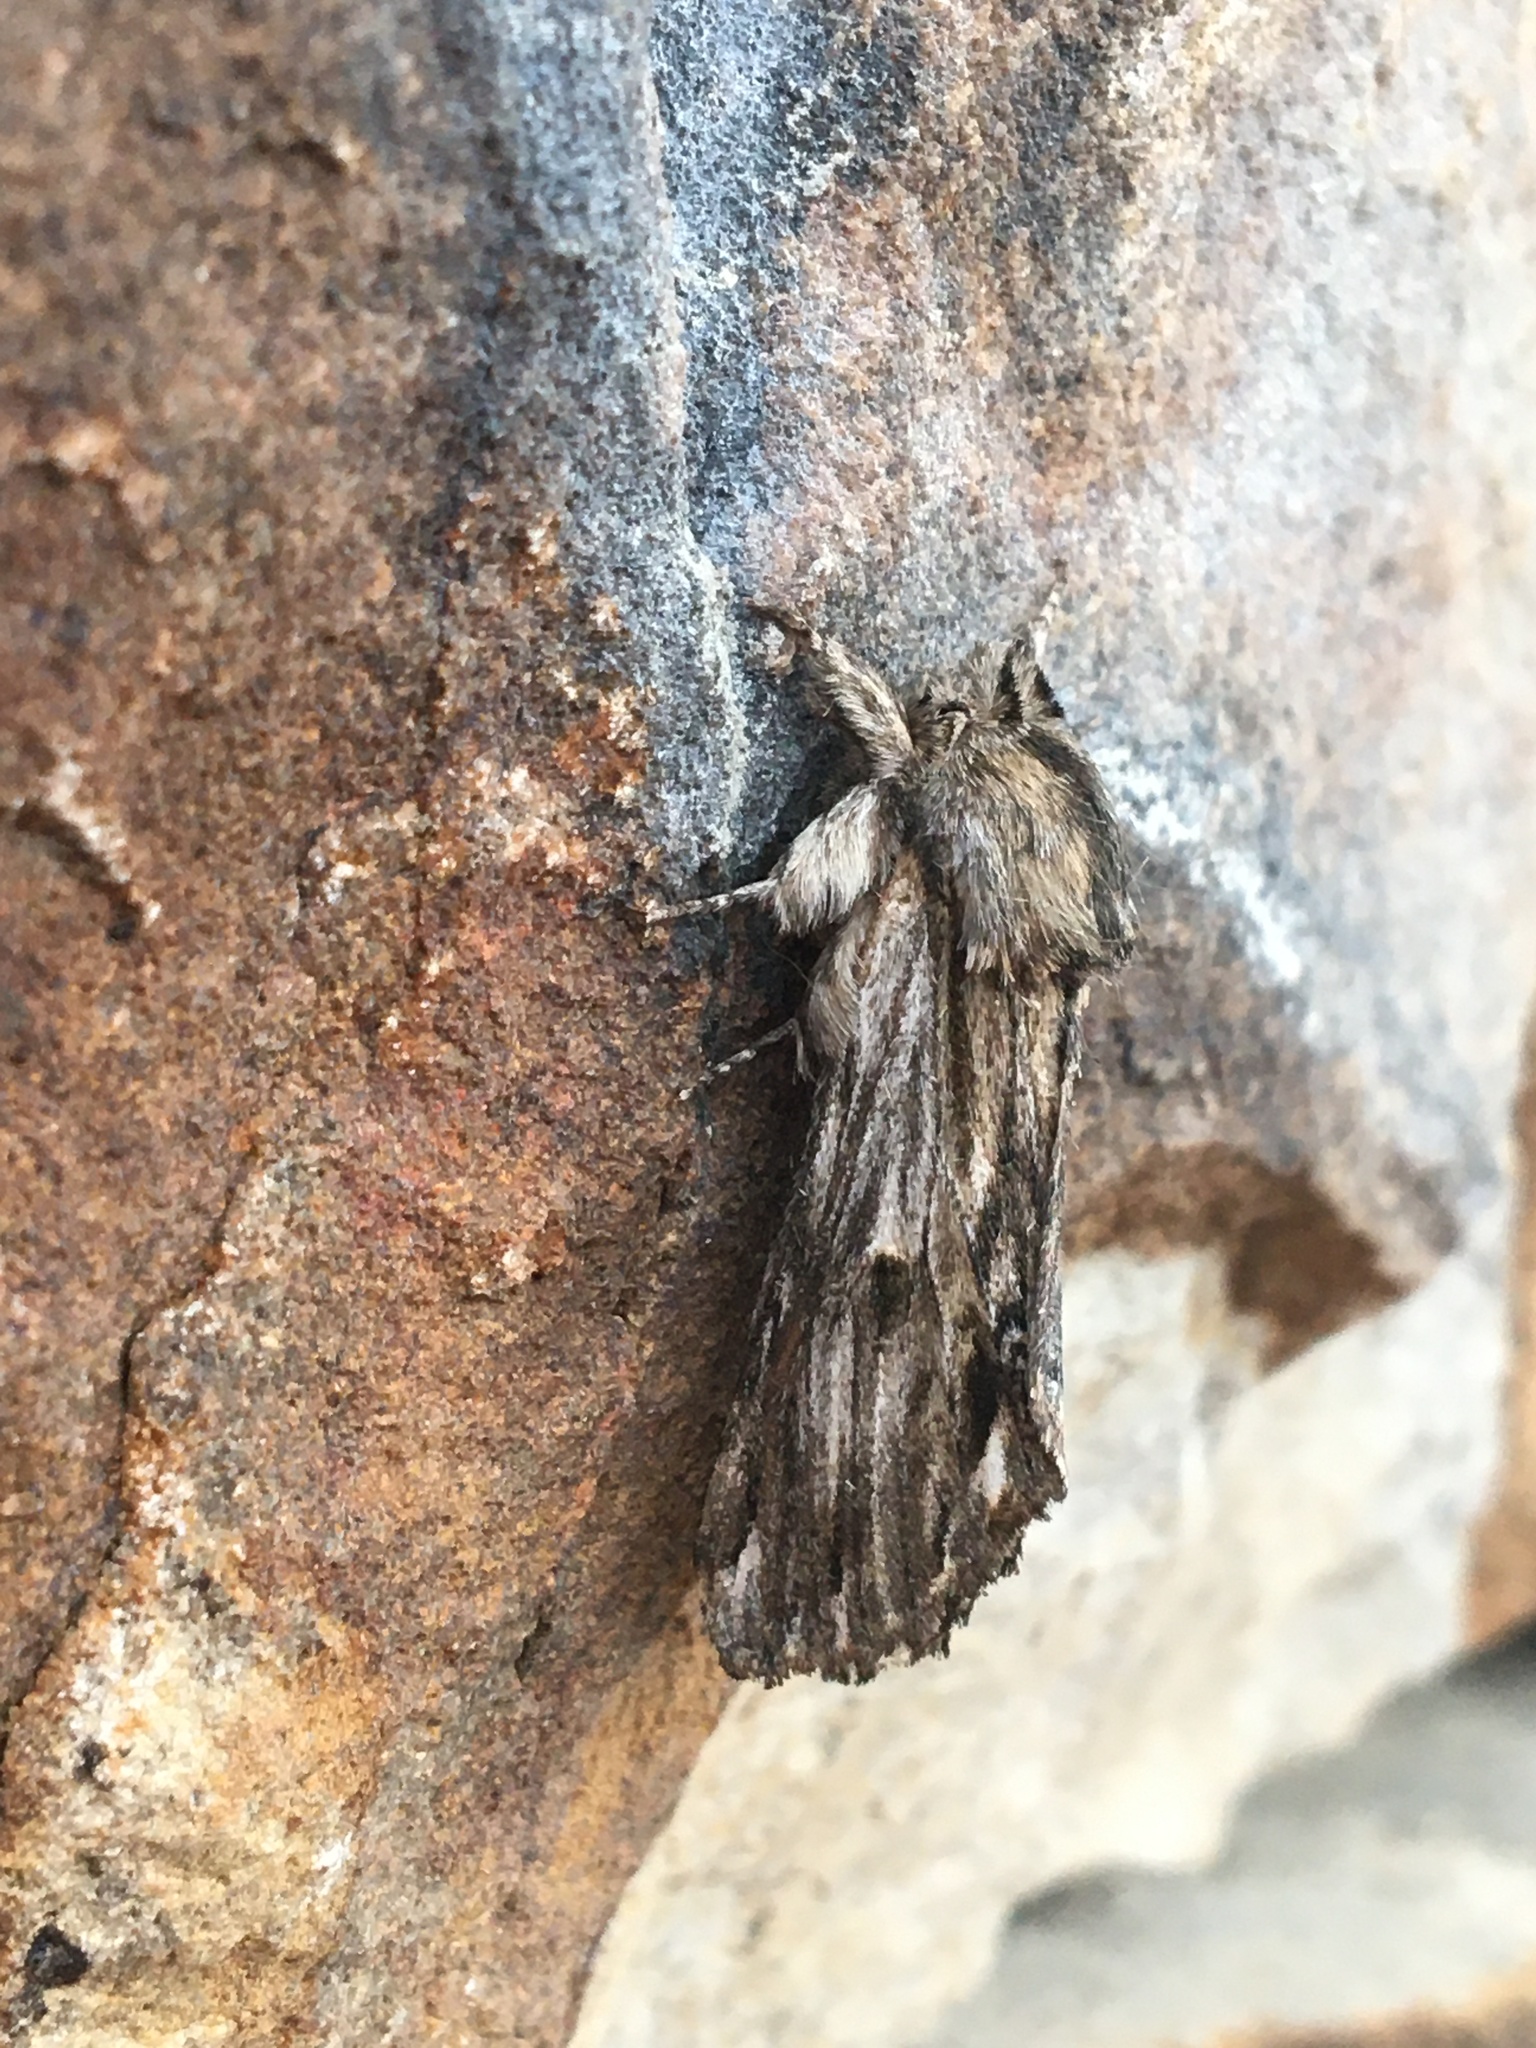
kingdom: Animalia
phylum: Arthropoda
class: Insecta
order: Lepidoptera
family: Notodontidae
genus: Oligocentria
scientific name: Oligocentria Ianassa lignicolor
